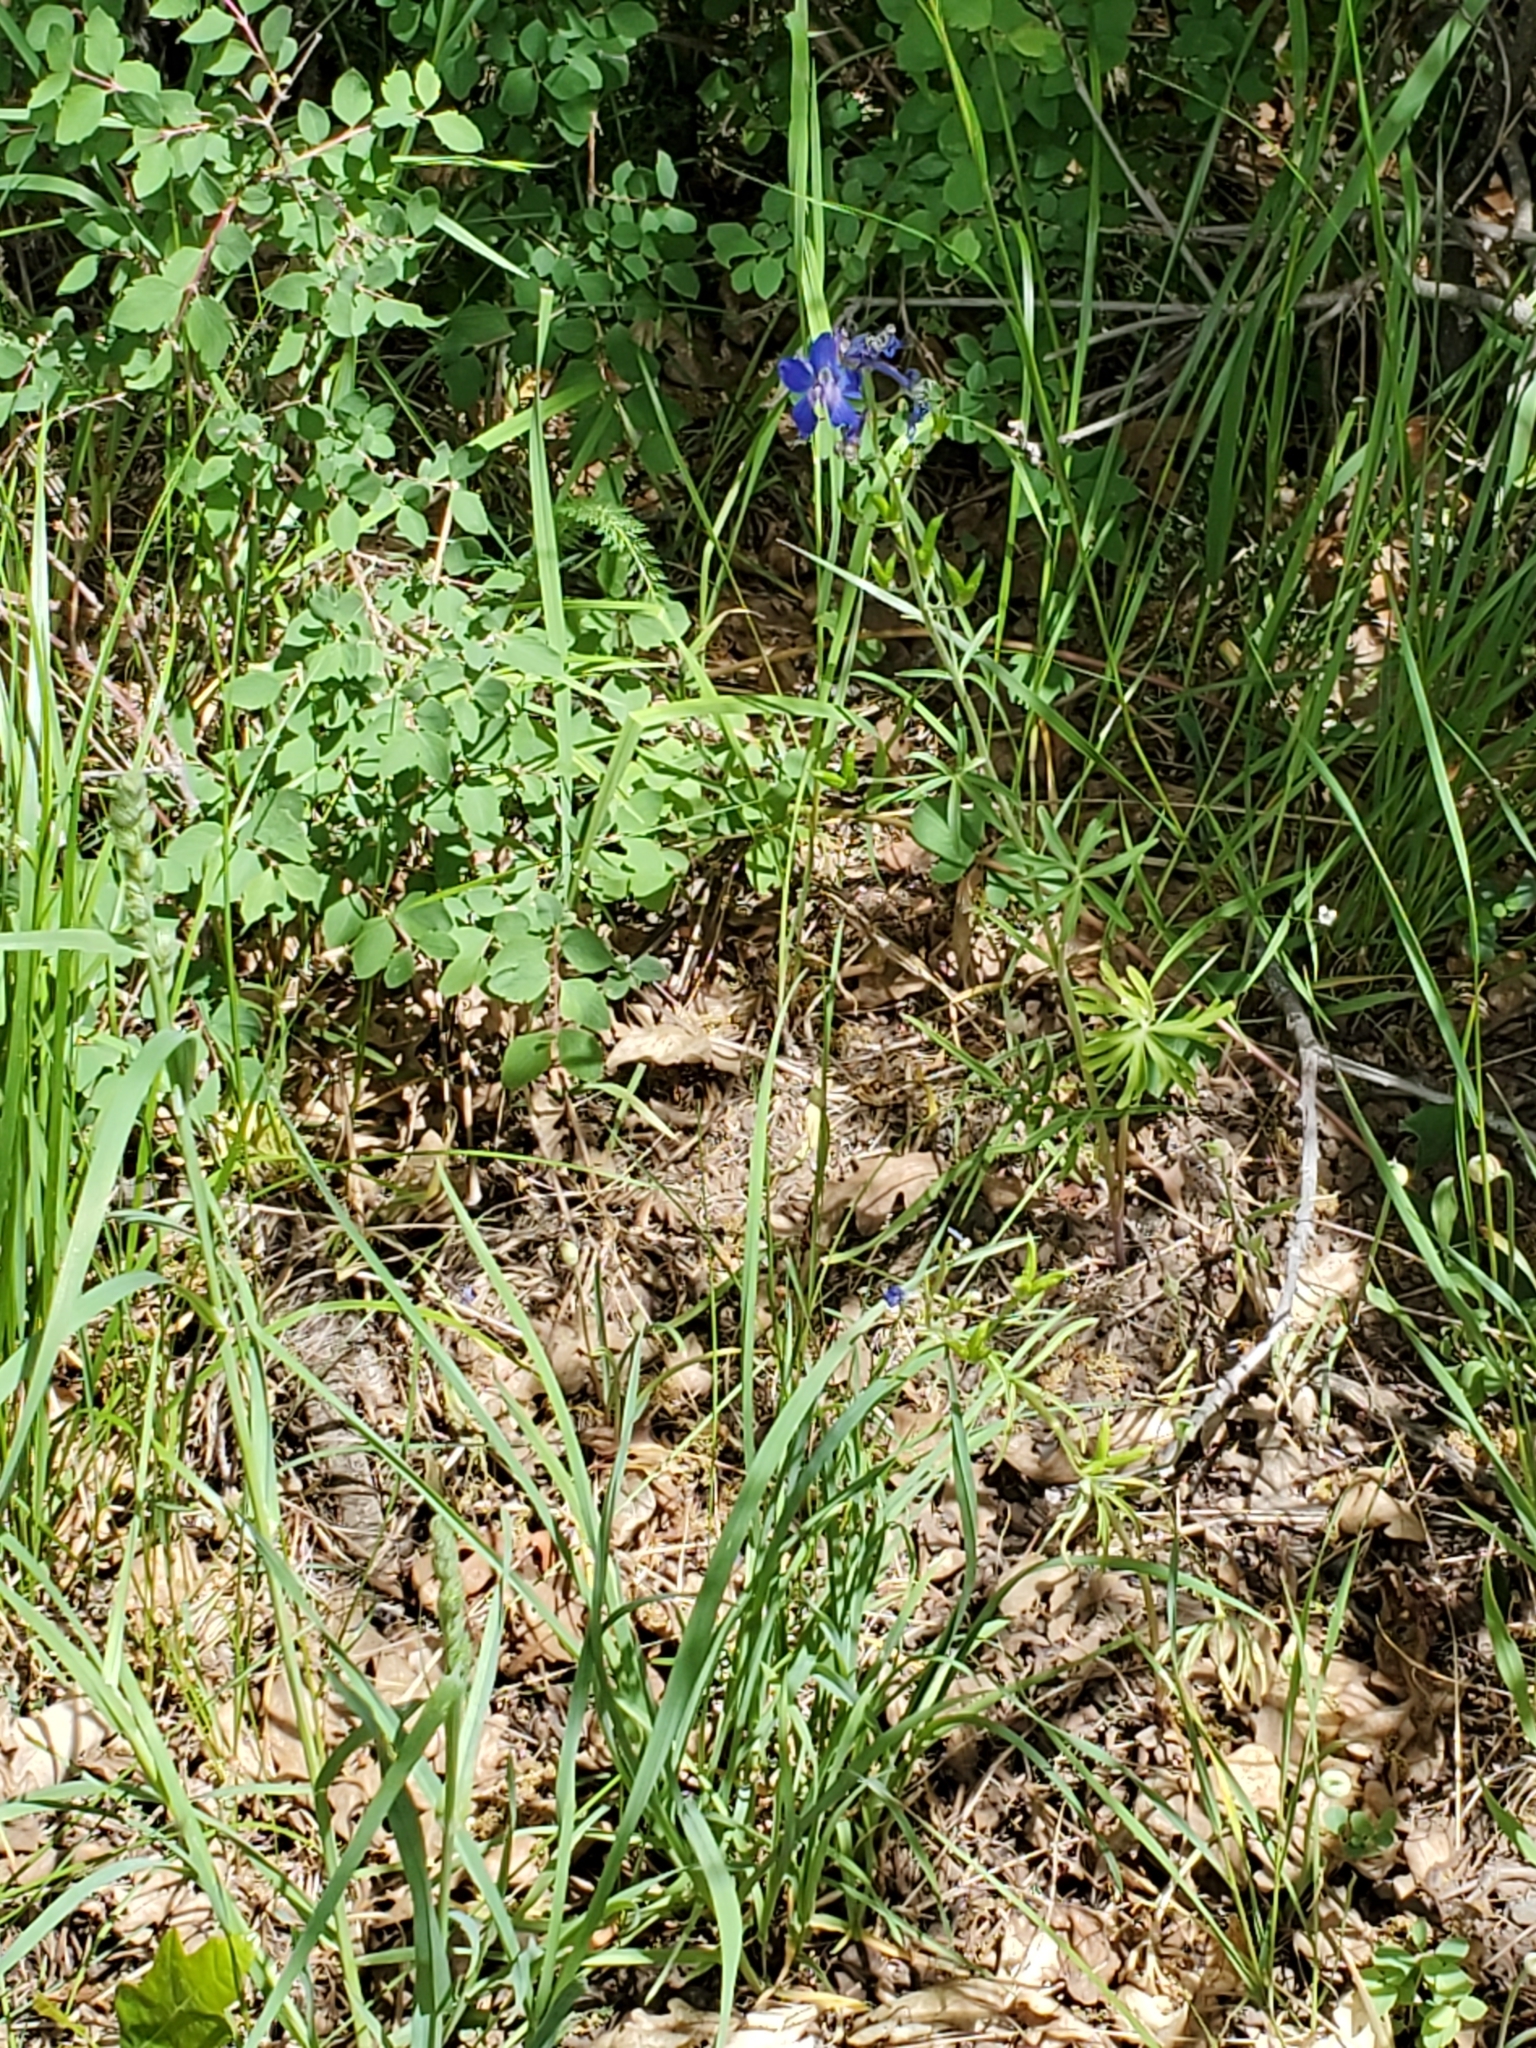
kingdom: Plantae
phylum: Tracheophyta
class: Magnoliopsida
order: Ranunculales
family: Ranunculaceae
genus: Delphinium
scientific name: Delphinium nuttallianum
